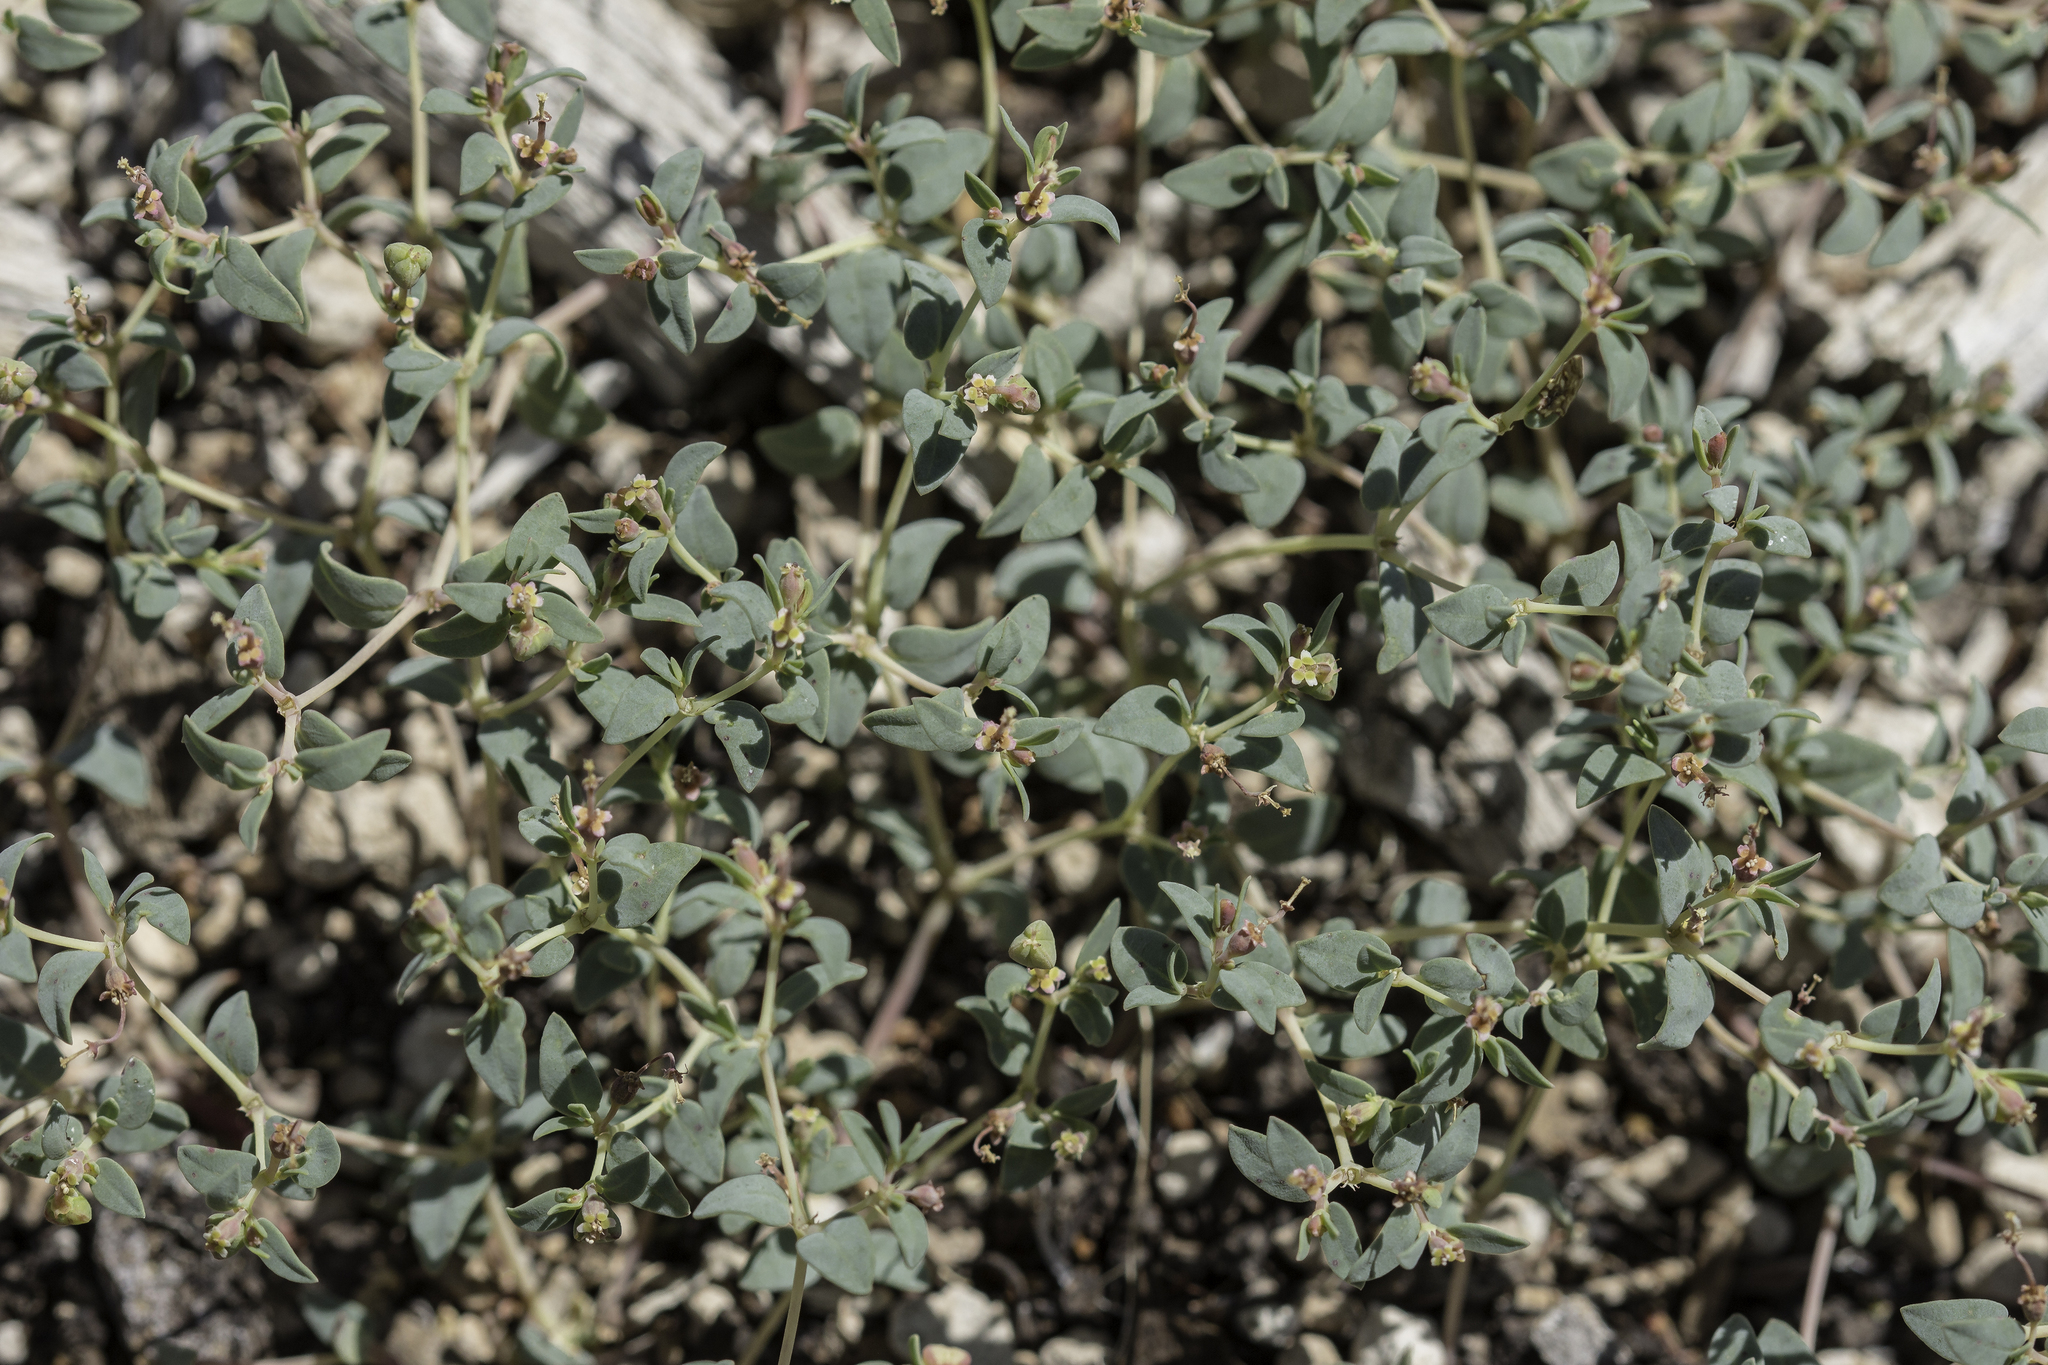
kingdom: Plantae
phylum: Tracheophyta
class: Magnoliopsida
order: Malpighiales
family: Euphorbiaceae
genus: Euphorbia
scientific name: Euphorbia fendleri
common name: Fendler's euphorbia
